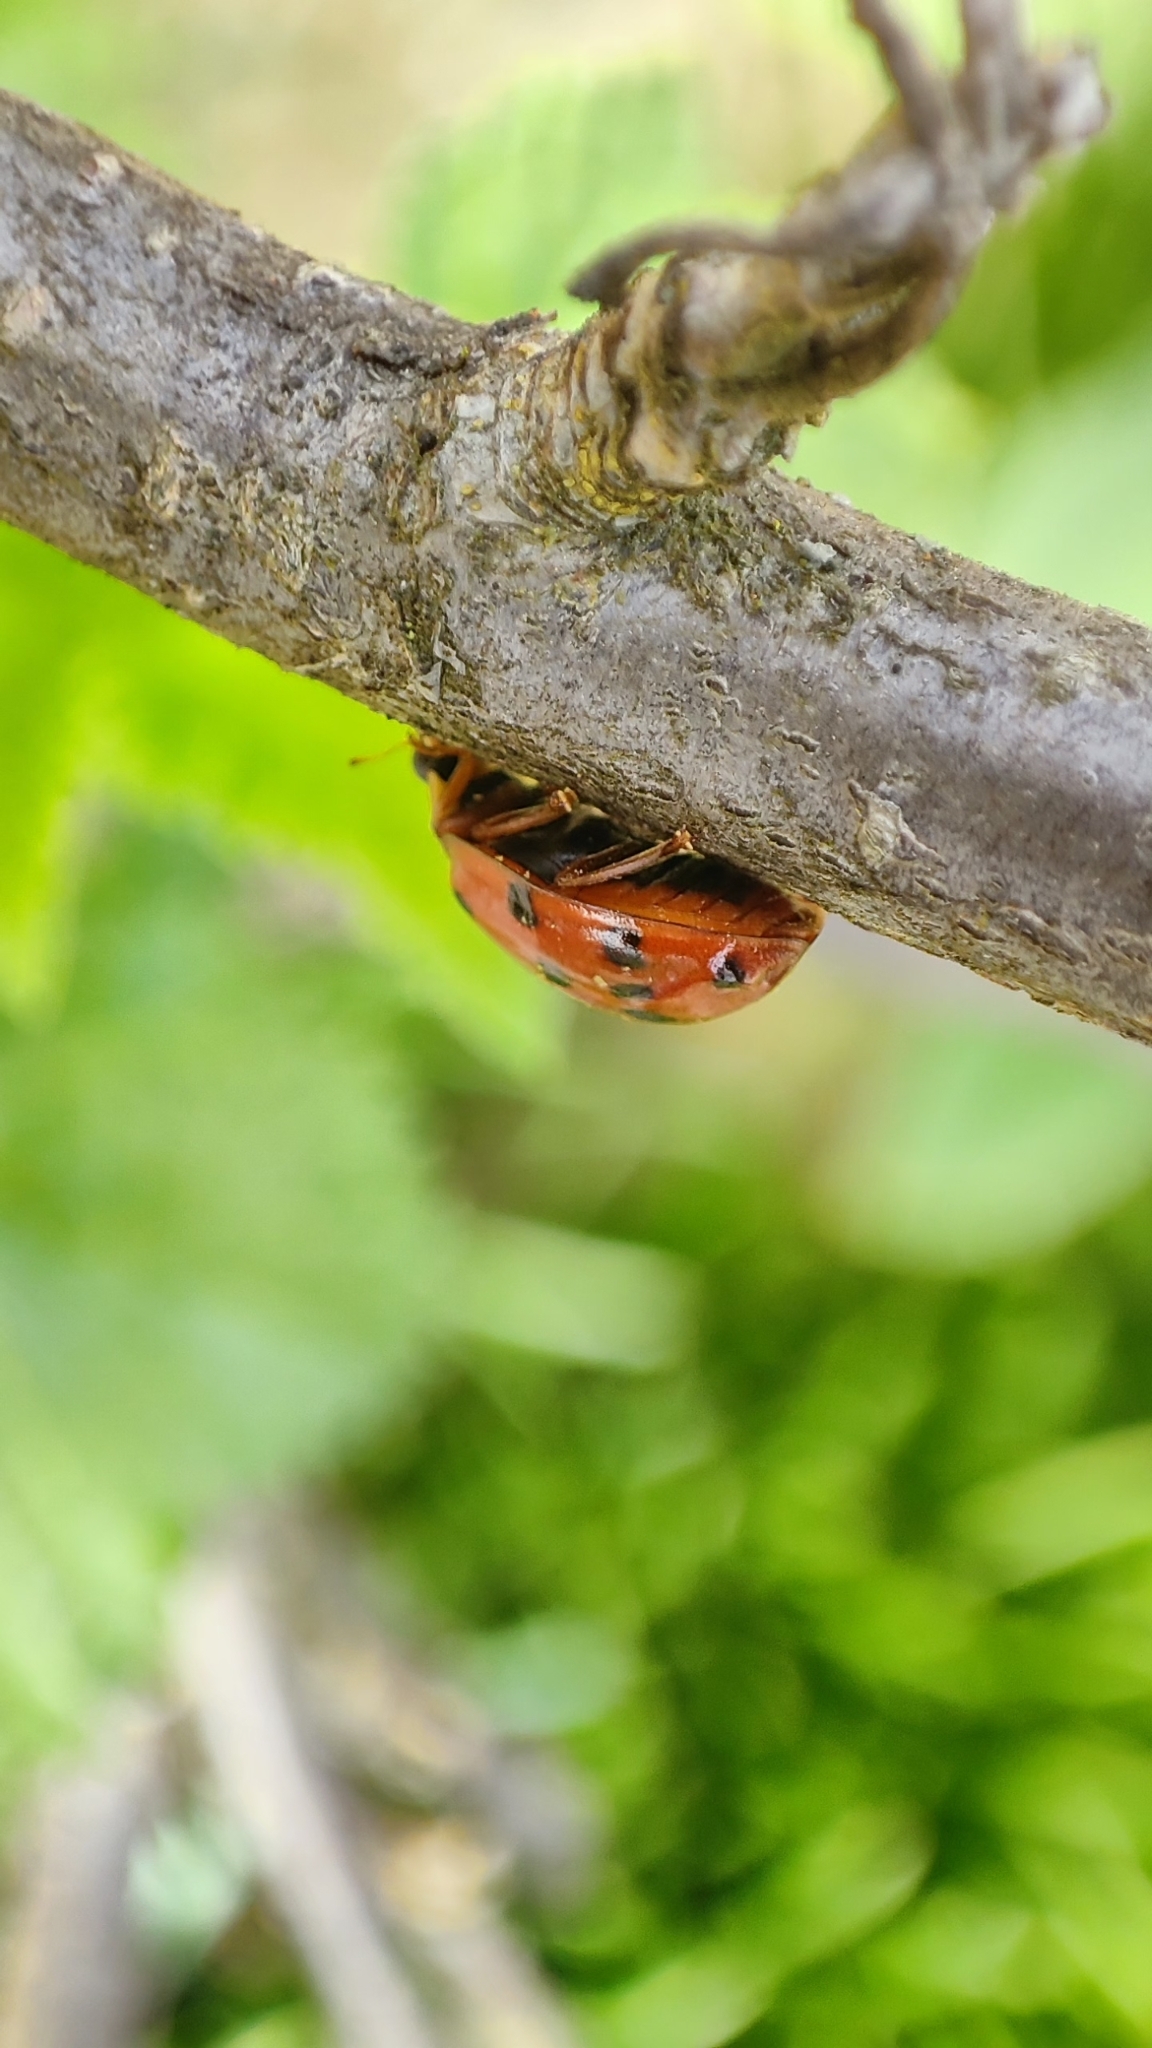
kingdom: Animalia
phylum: Arthropoda
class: Insecta
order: Coleoptera
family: Coccinellidae
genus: Harmonia
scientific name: Harmonia axyridis
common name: Harlequin ladybird
